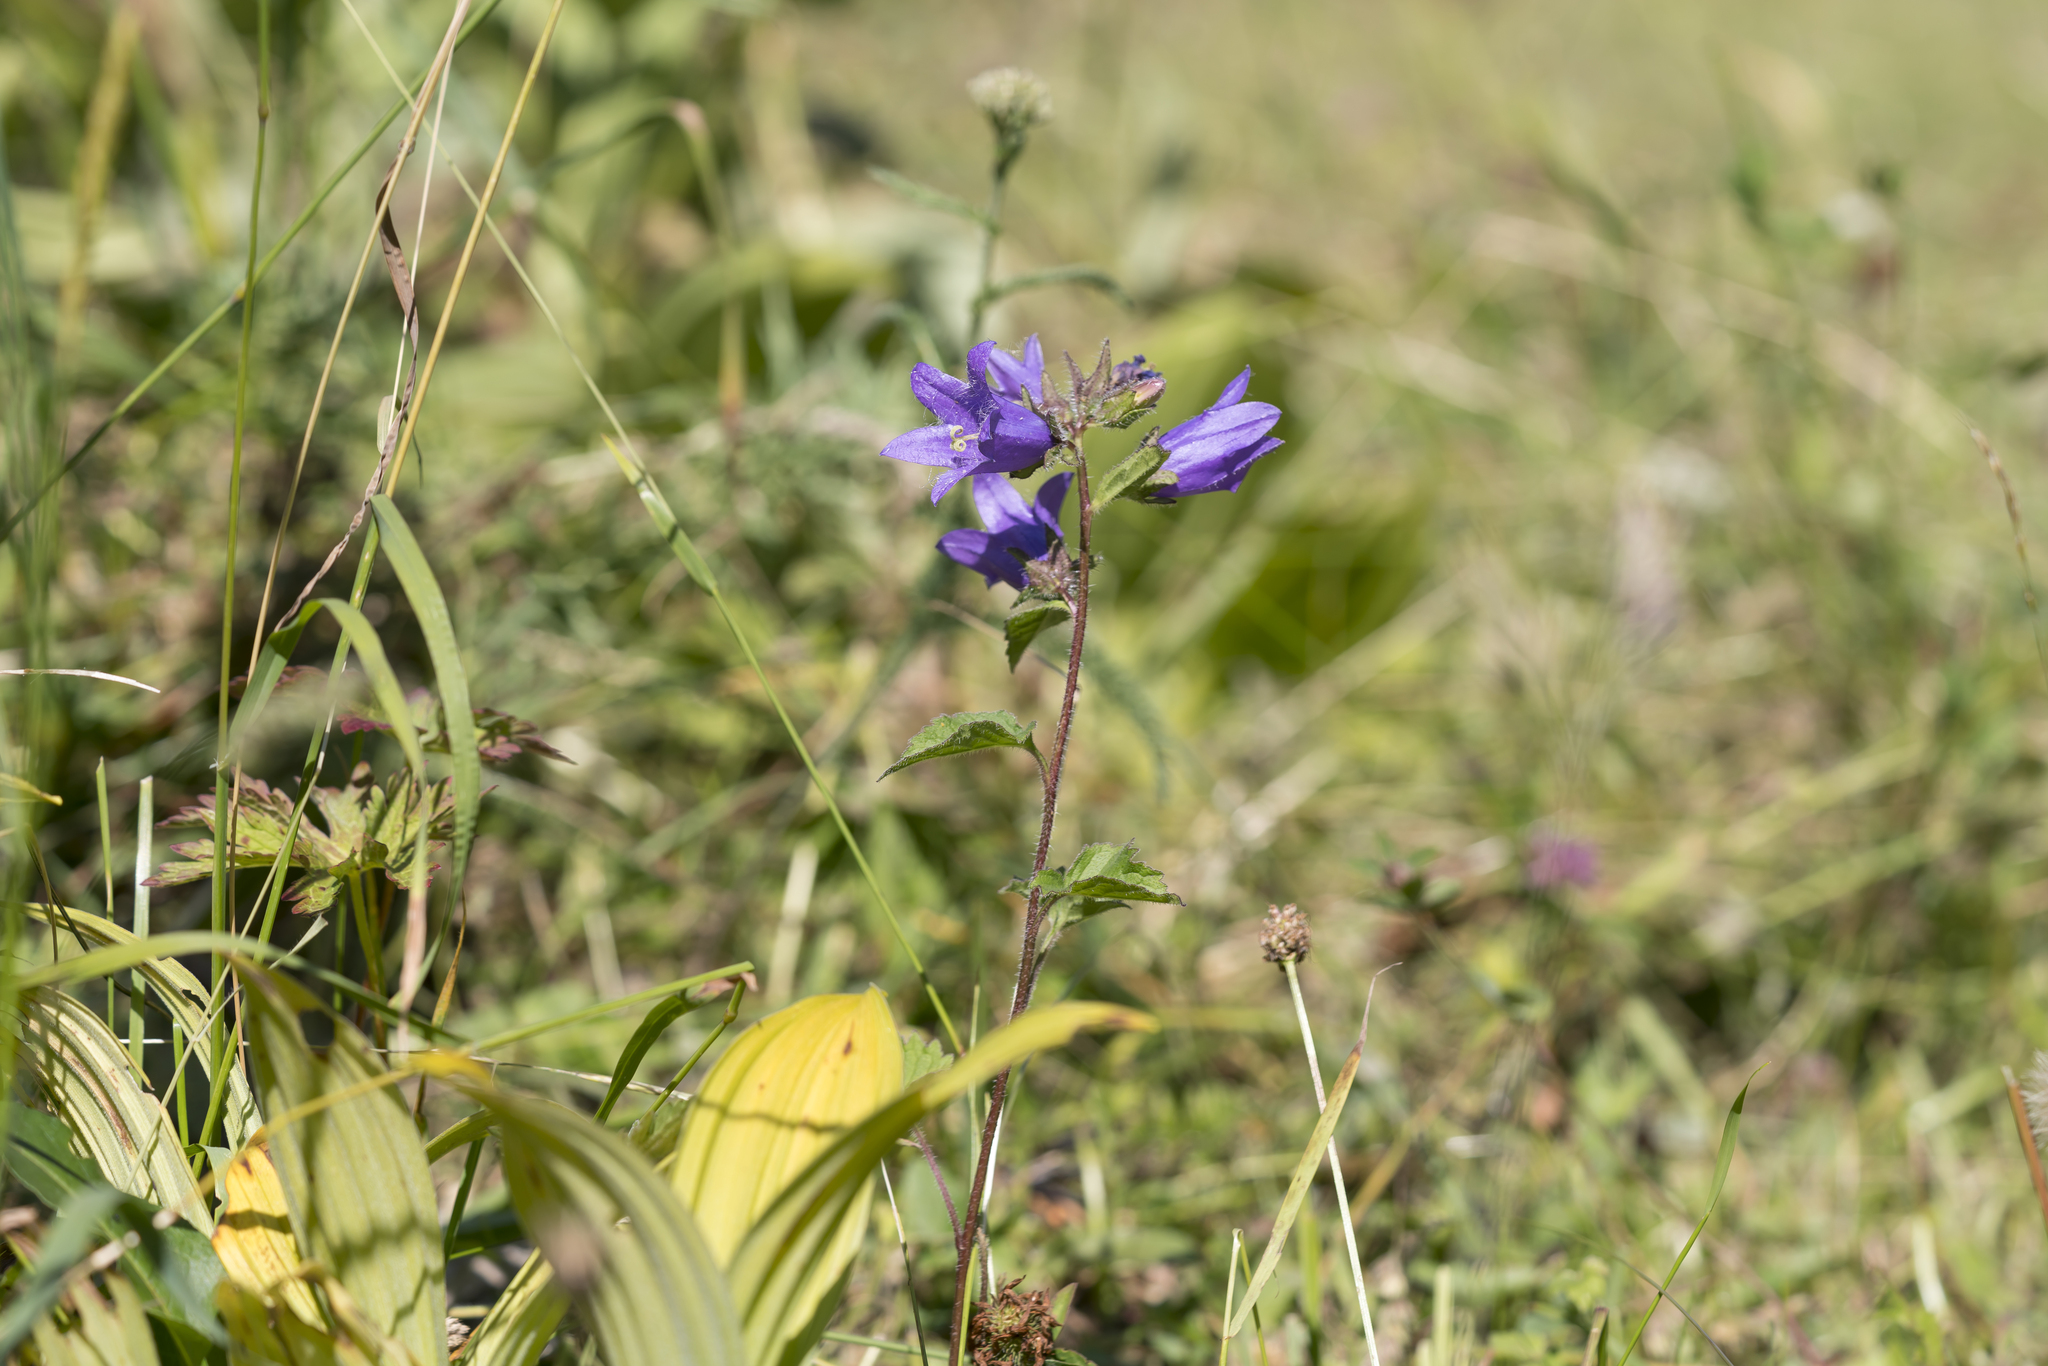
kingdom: Plantae
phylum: Tracheophyta
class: Magnoliopsida
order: Asterales
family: Campanulaceae
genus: Campanula
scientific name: Campanula trachelium
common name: Nettle-leaved bellflower
